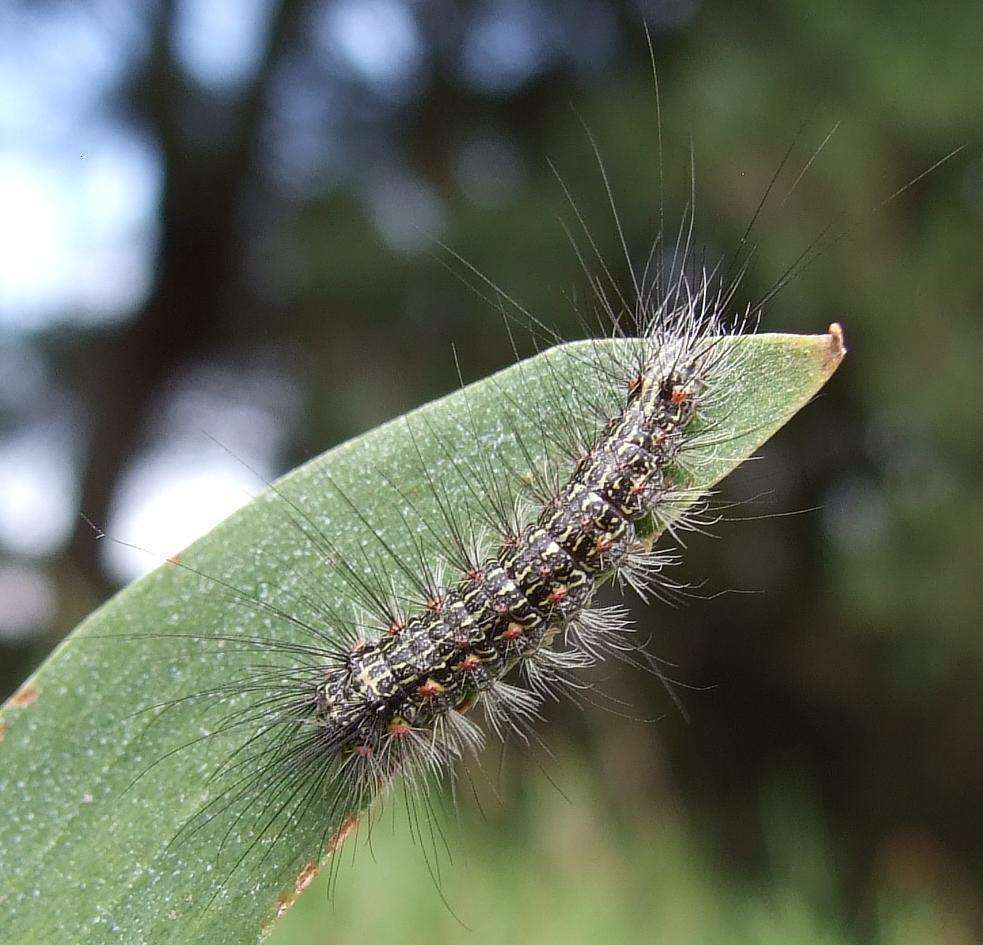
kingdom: Animalia
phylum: Arthropoda
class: Insecta
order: Lepidoptera
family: Erebidae
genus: Anestia
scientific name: Anestia
